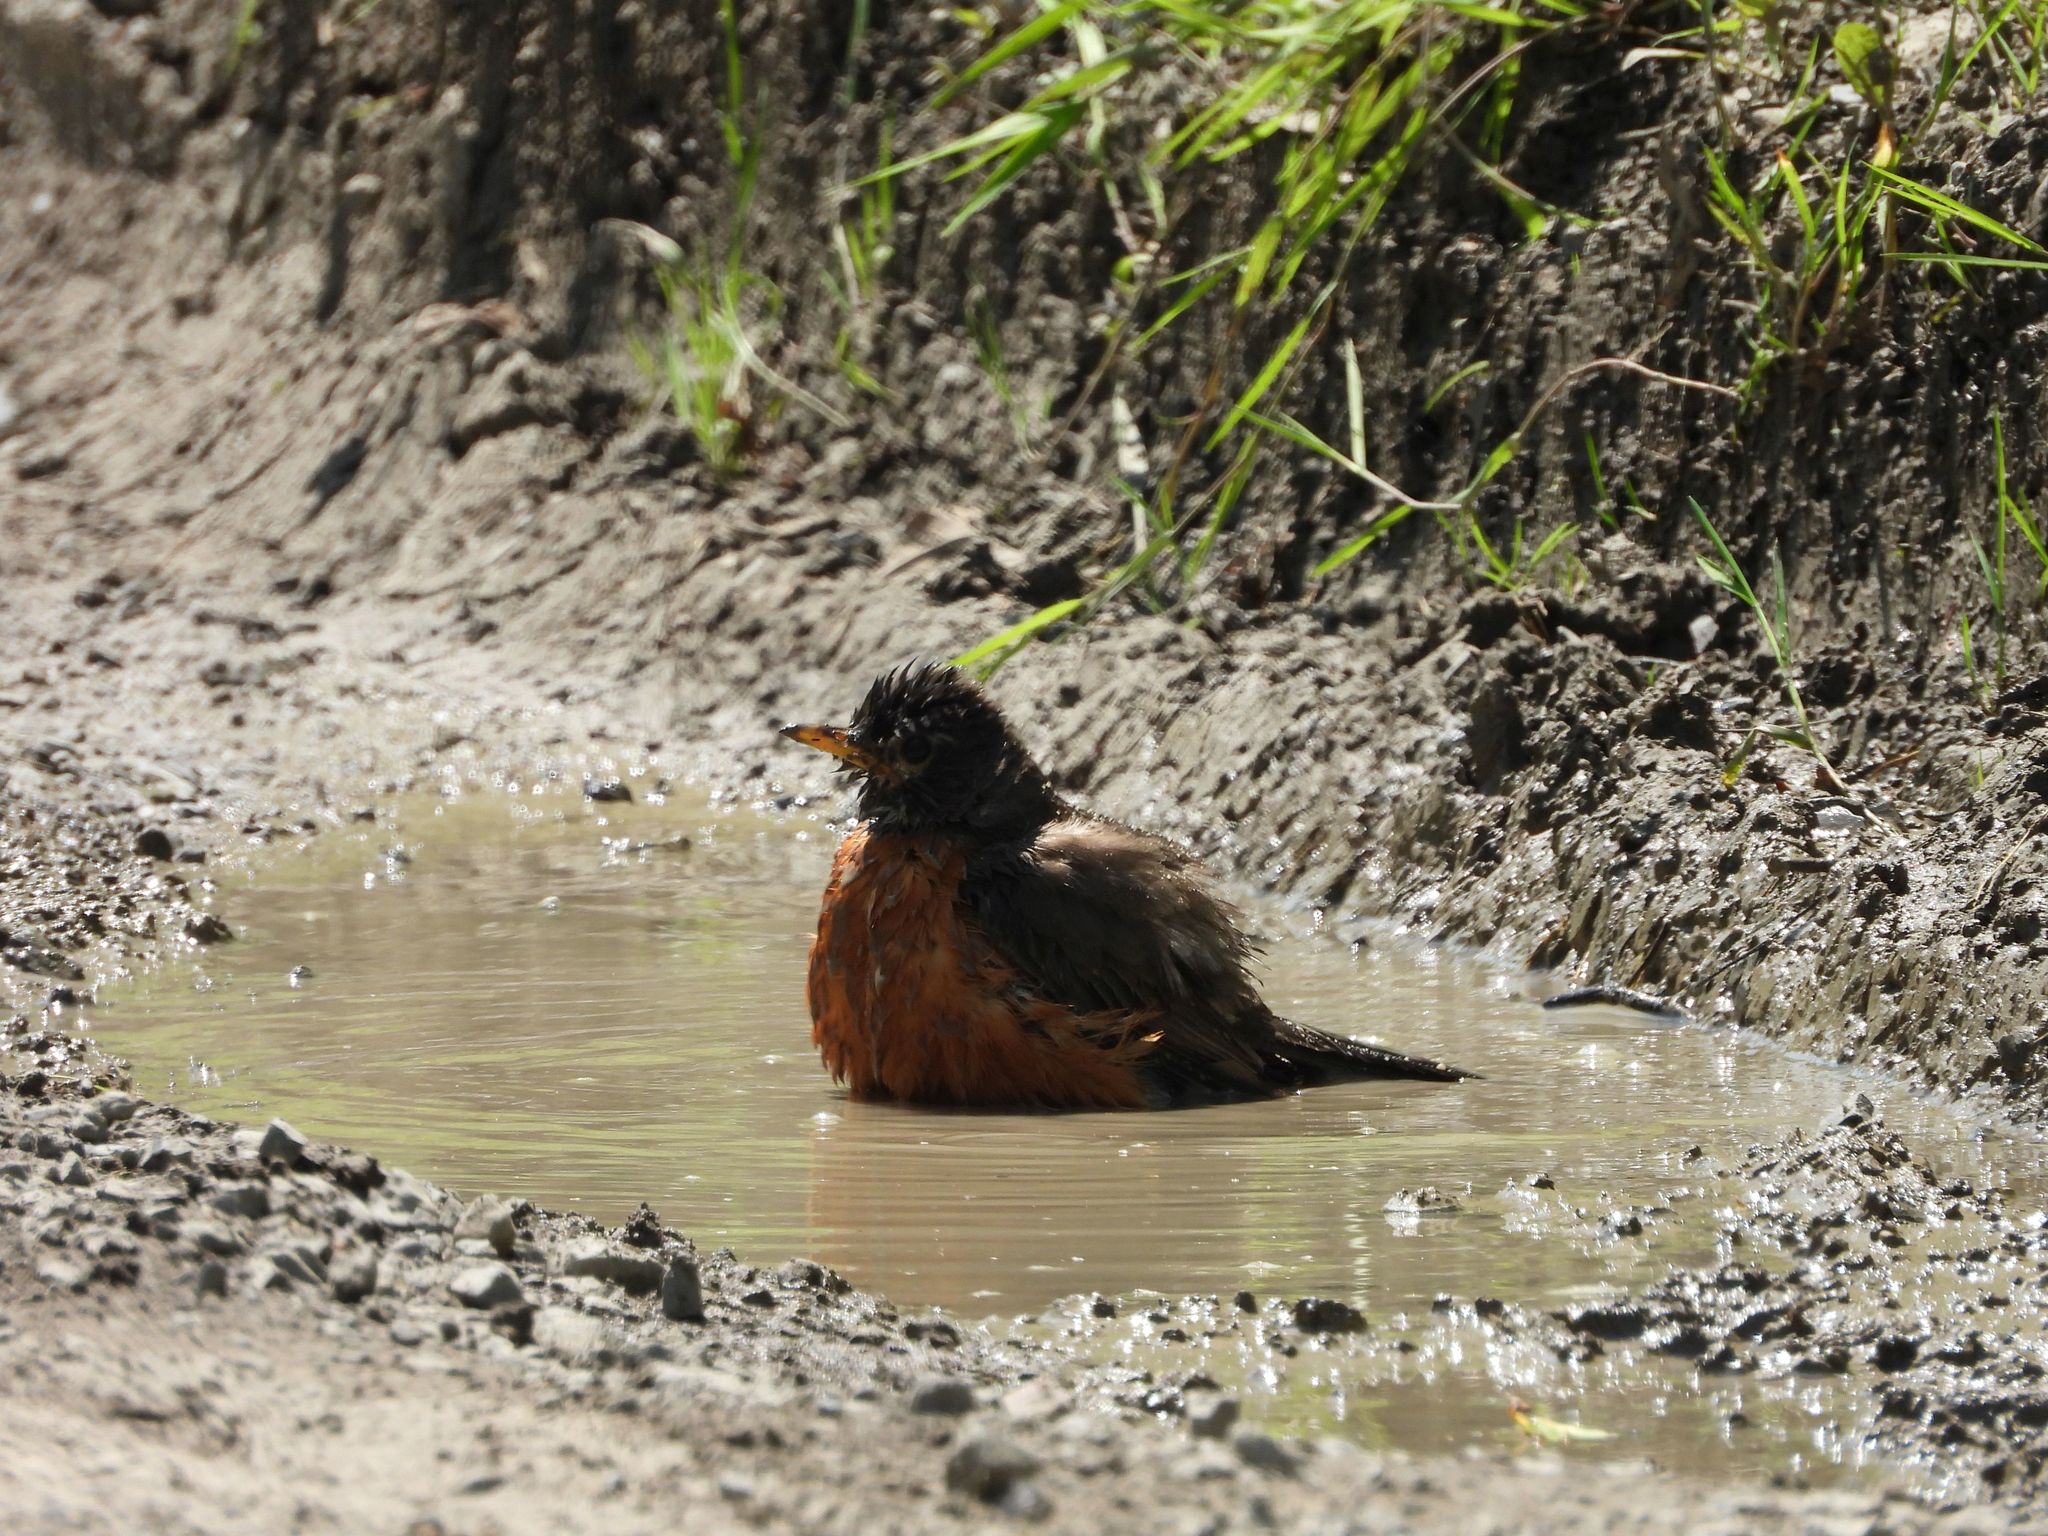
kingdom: Animalia
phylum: Chordata
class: Aves
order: Passeriformes
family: Turdidae
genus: Turdus
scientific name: Turdus migratorius
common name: American robin
